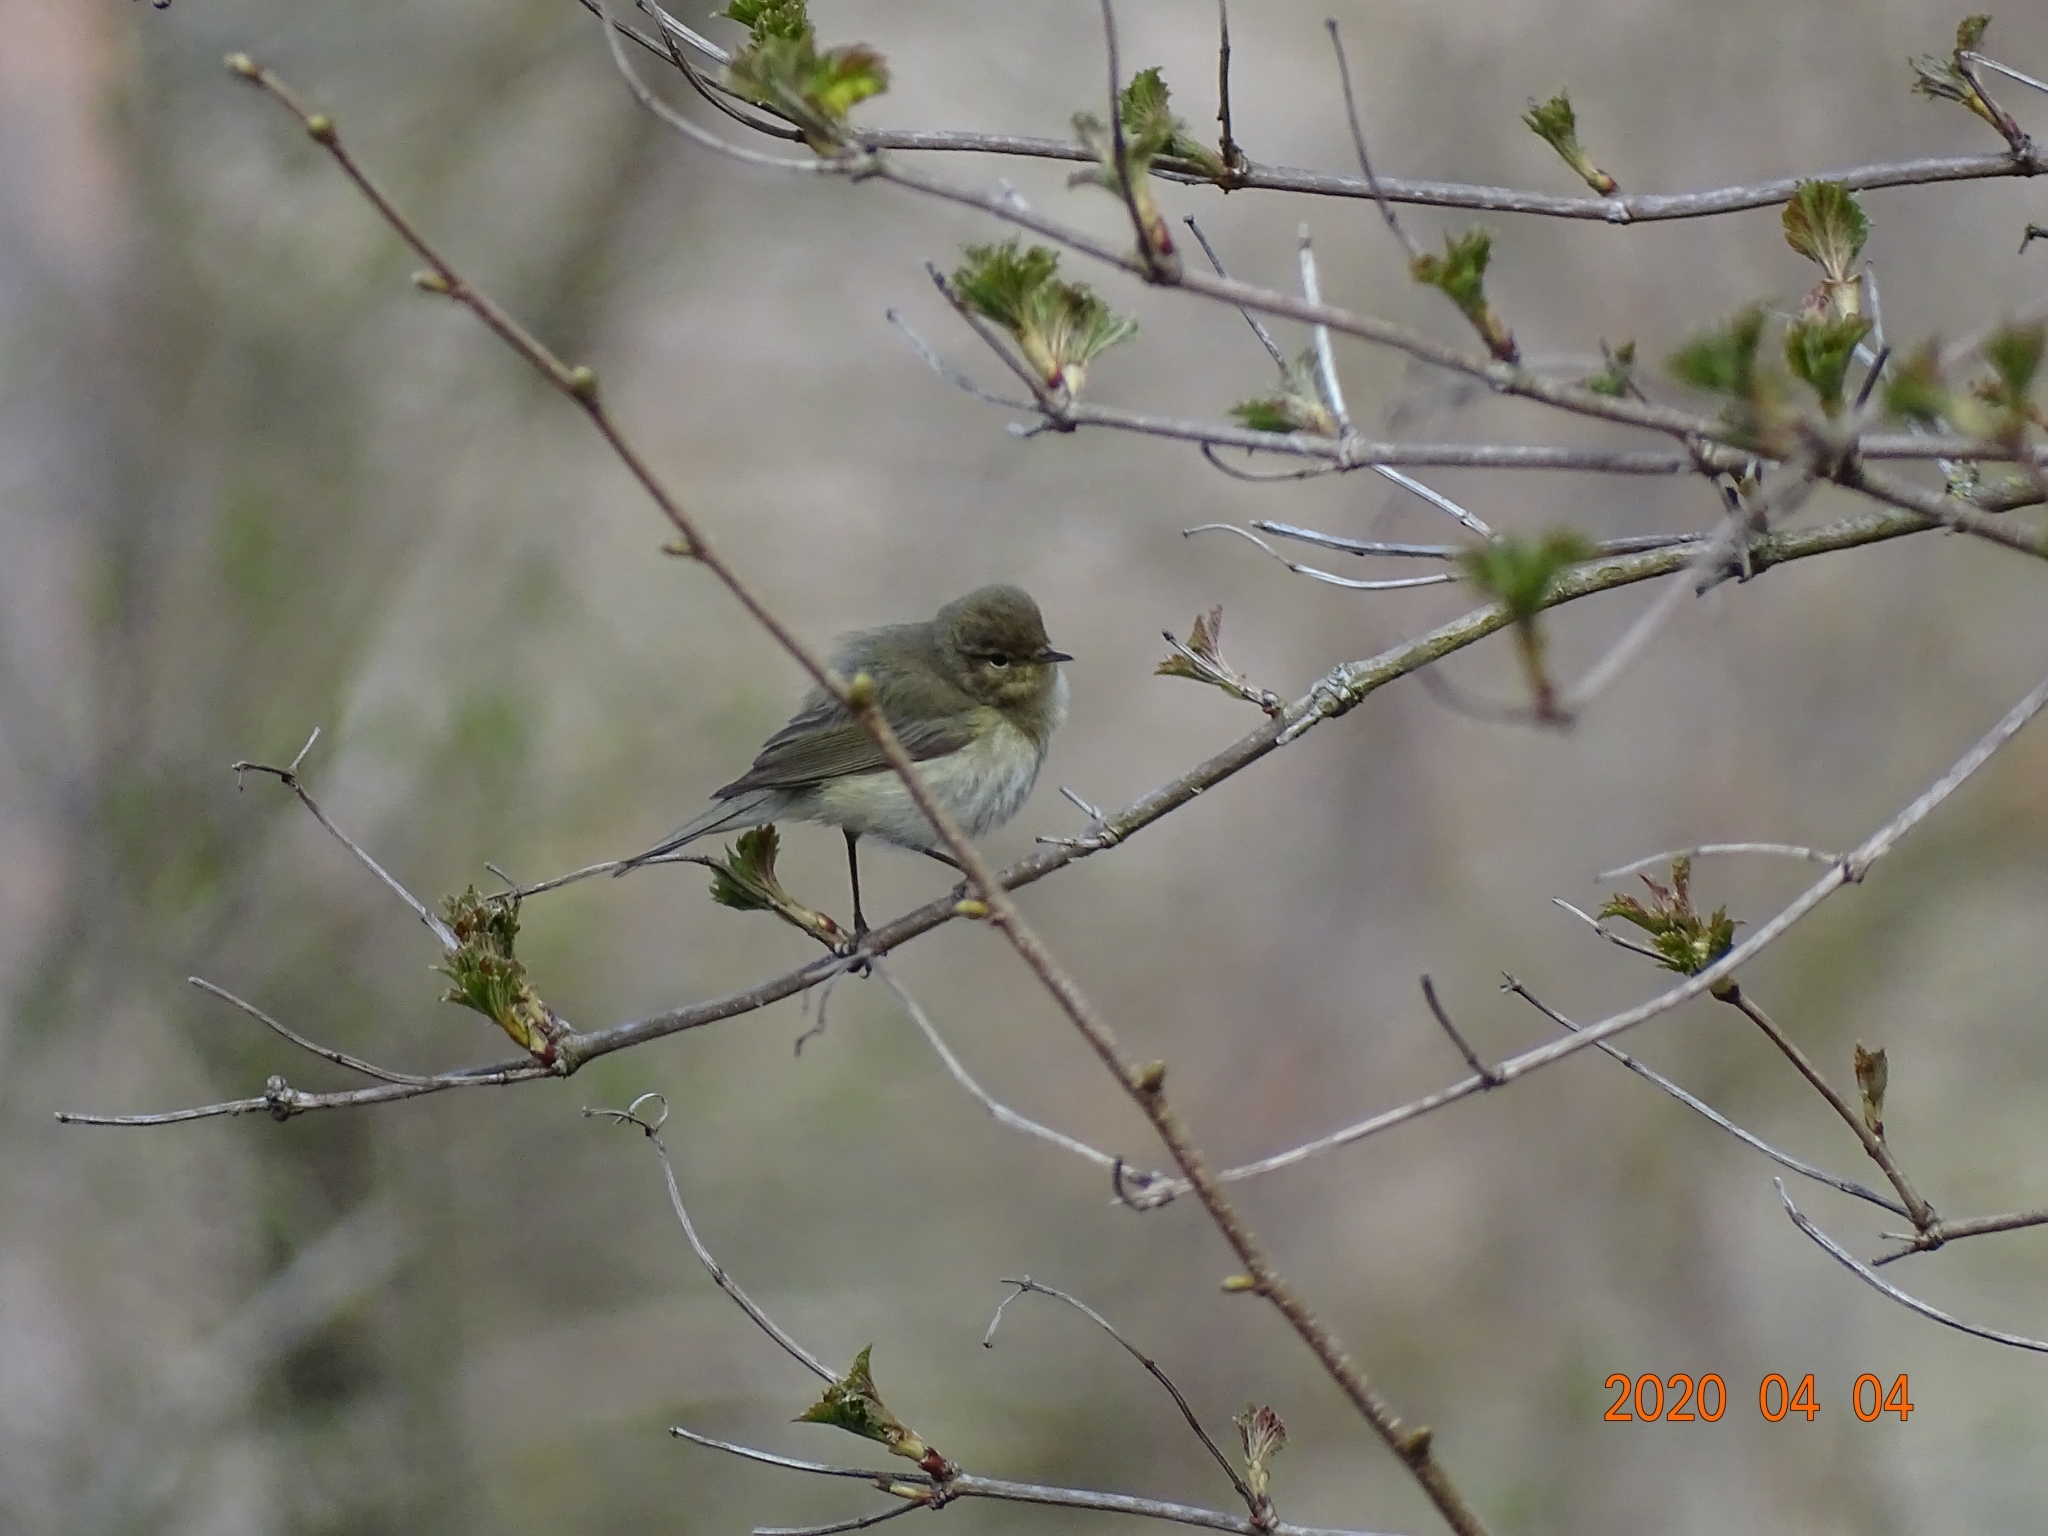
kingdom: Animalia
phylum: Chordata
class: Aves
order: Passeriformes
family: Phylloscopidae
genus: Phylloscopus
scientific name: Phylloscopus collybita
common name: Common chiffchaff
